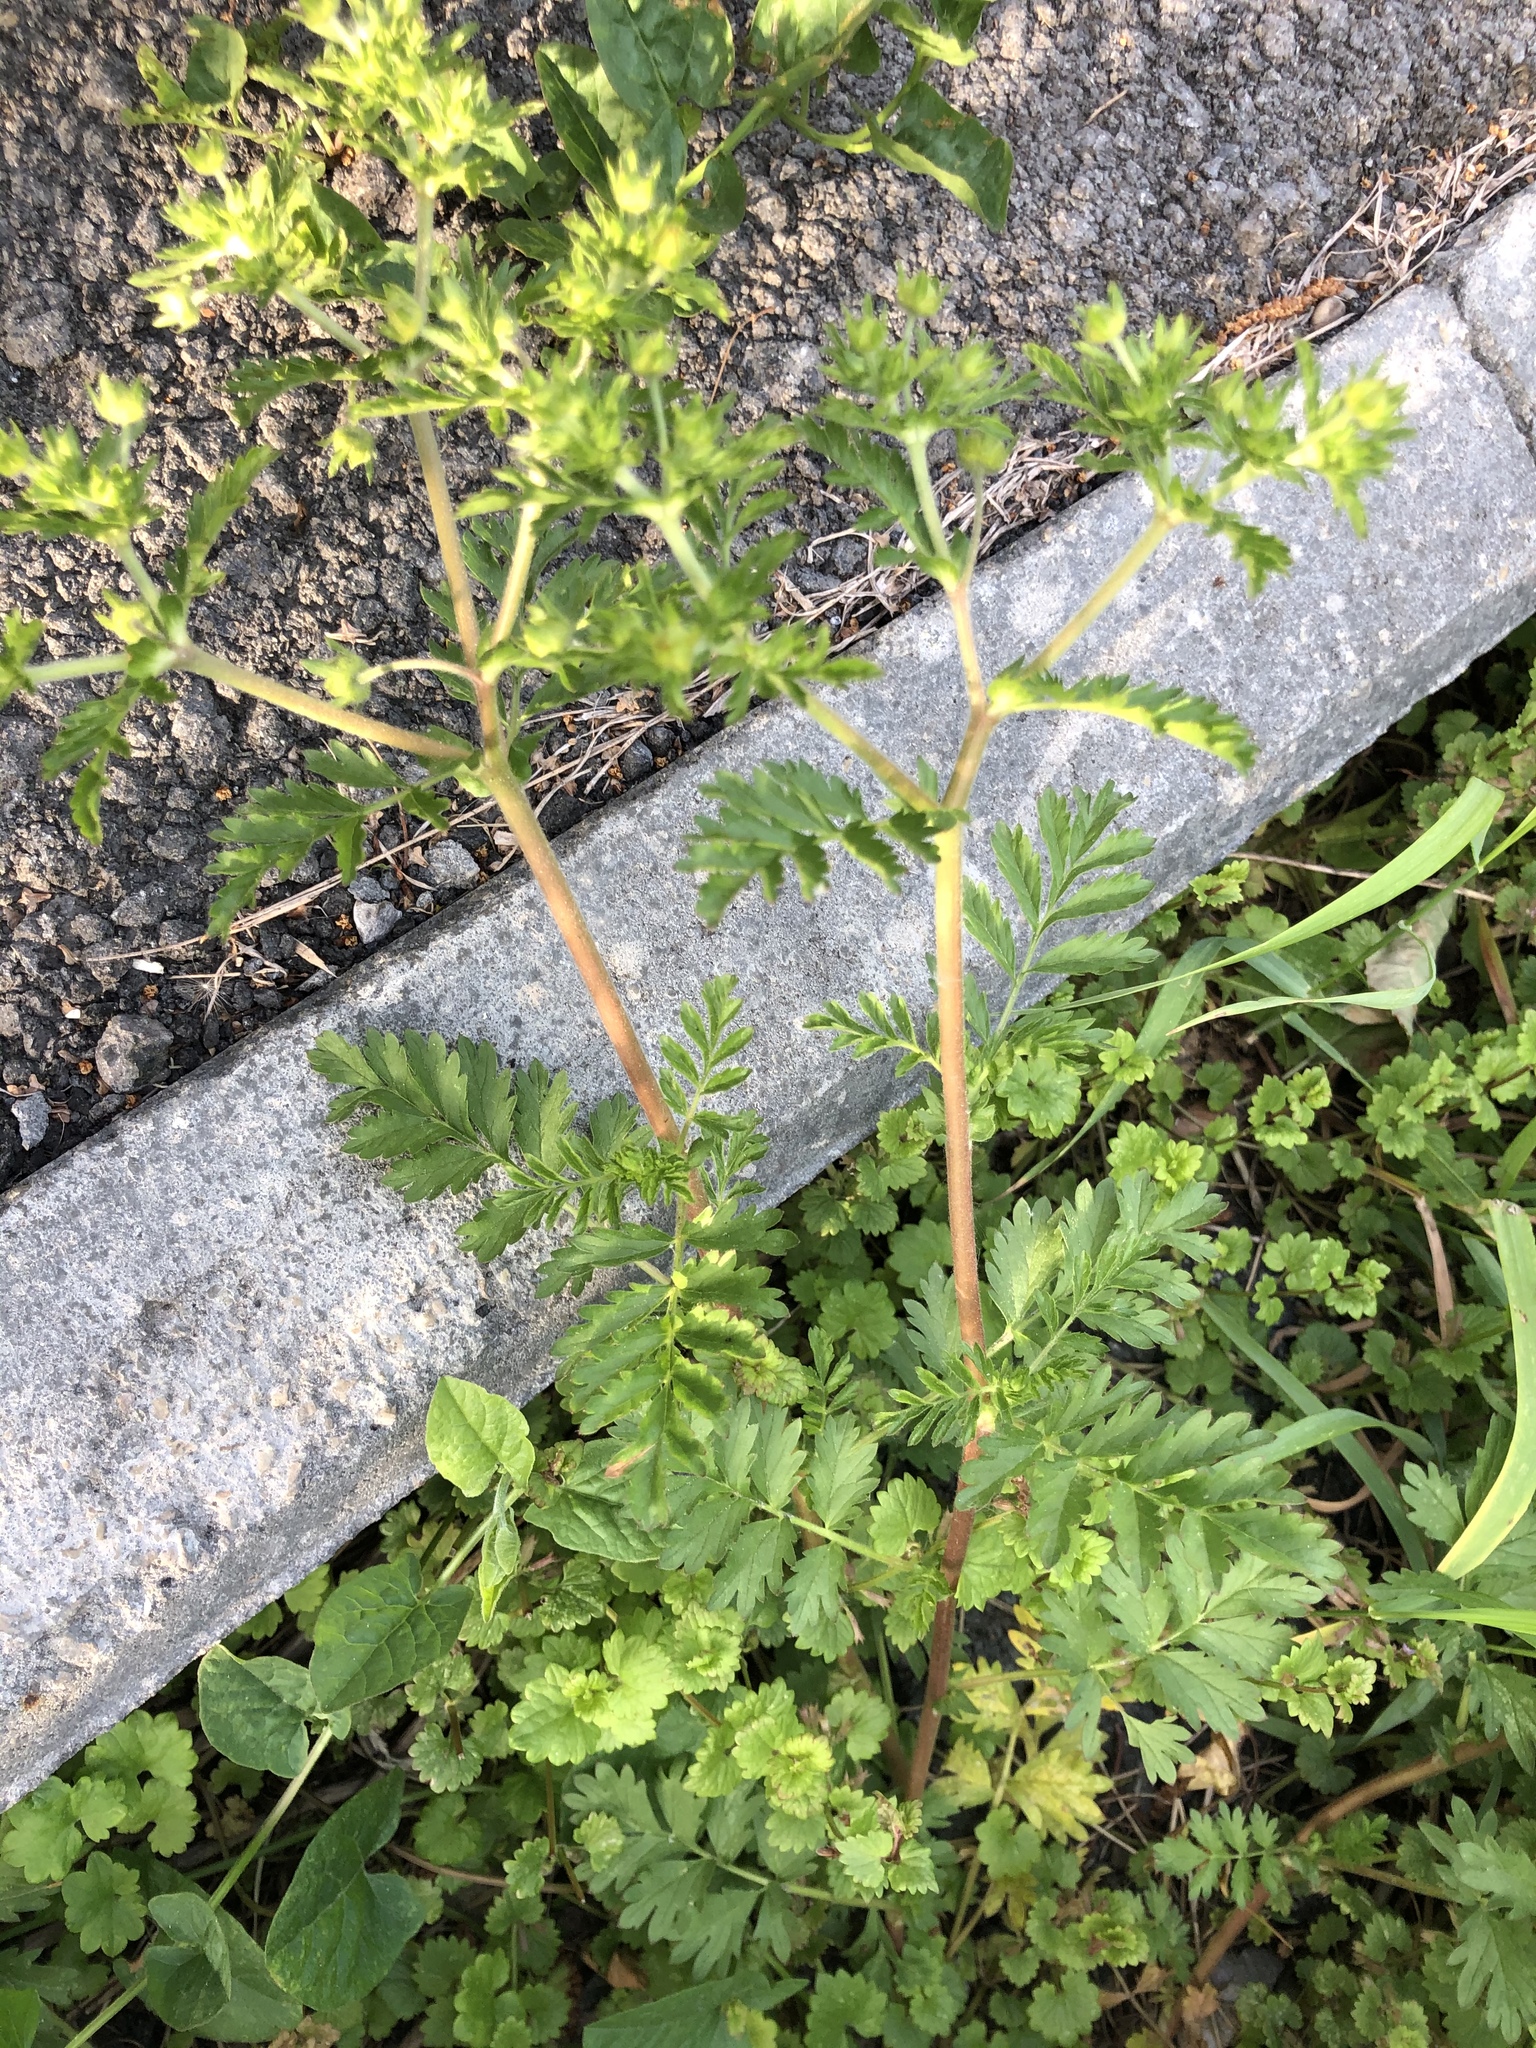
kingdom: Plantae
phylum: Tracheophyta
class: Magnoliopsida
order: Rosales
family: Rosaceae
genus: Potentilla
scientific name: Potentilla supina
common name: Prostrate cinquefoil
